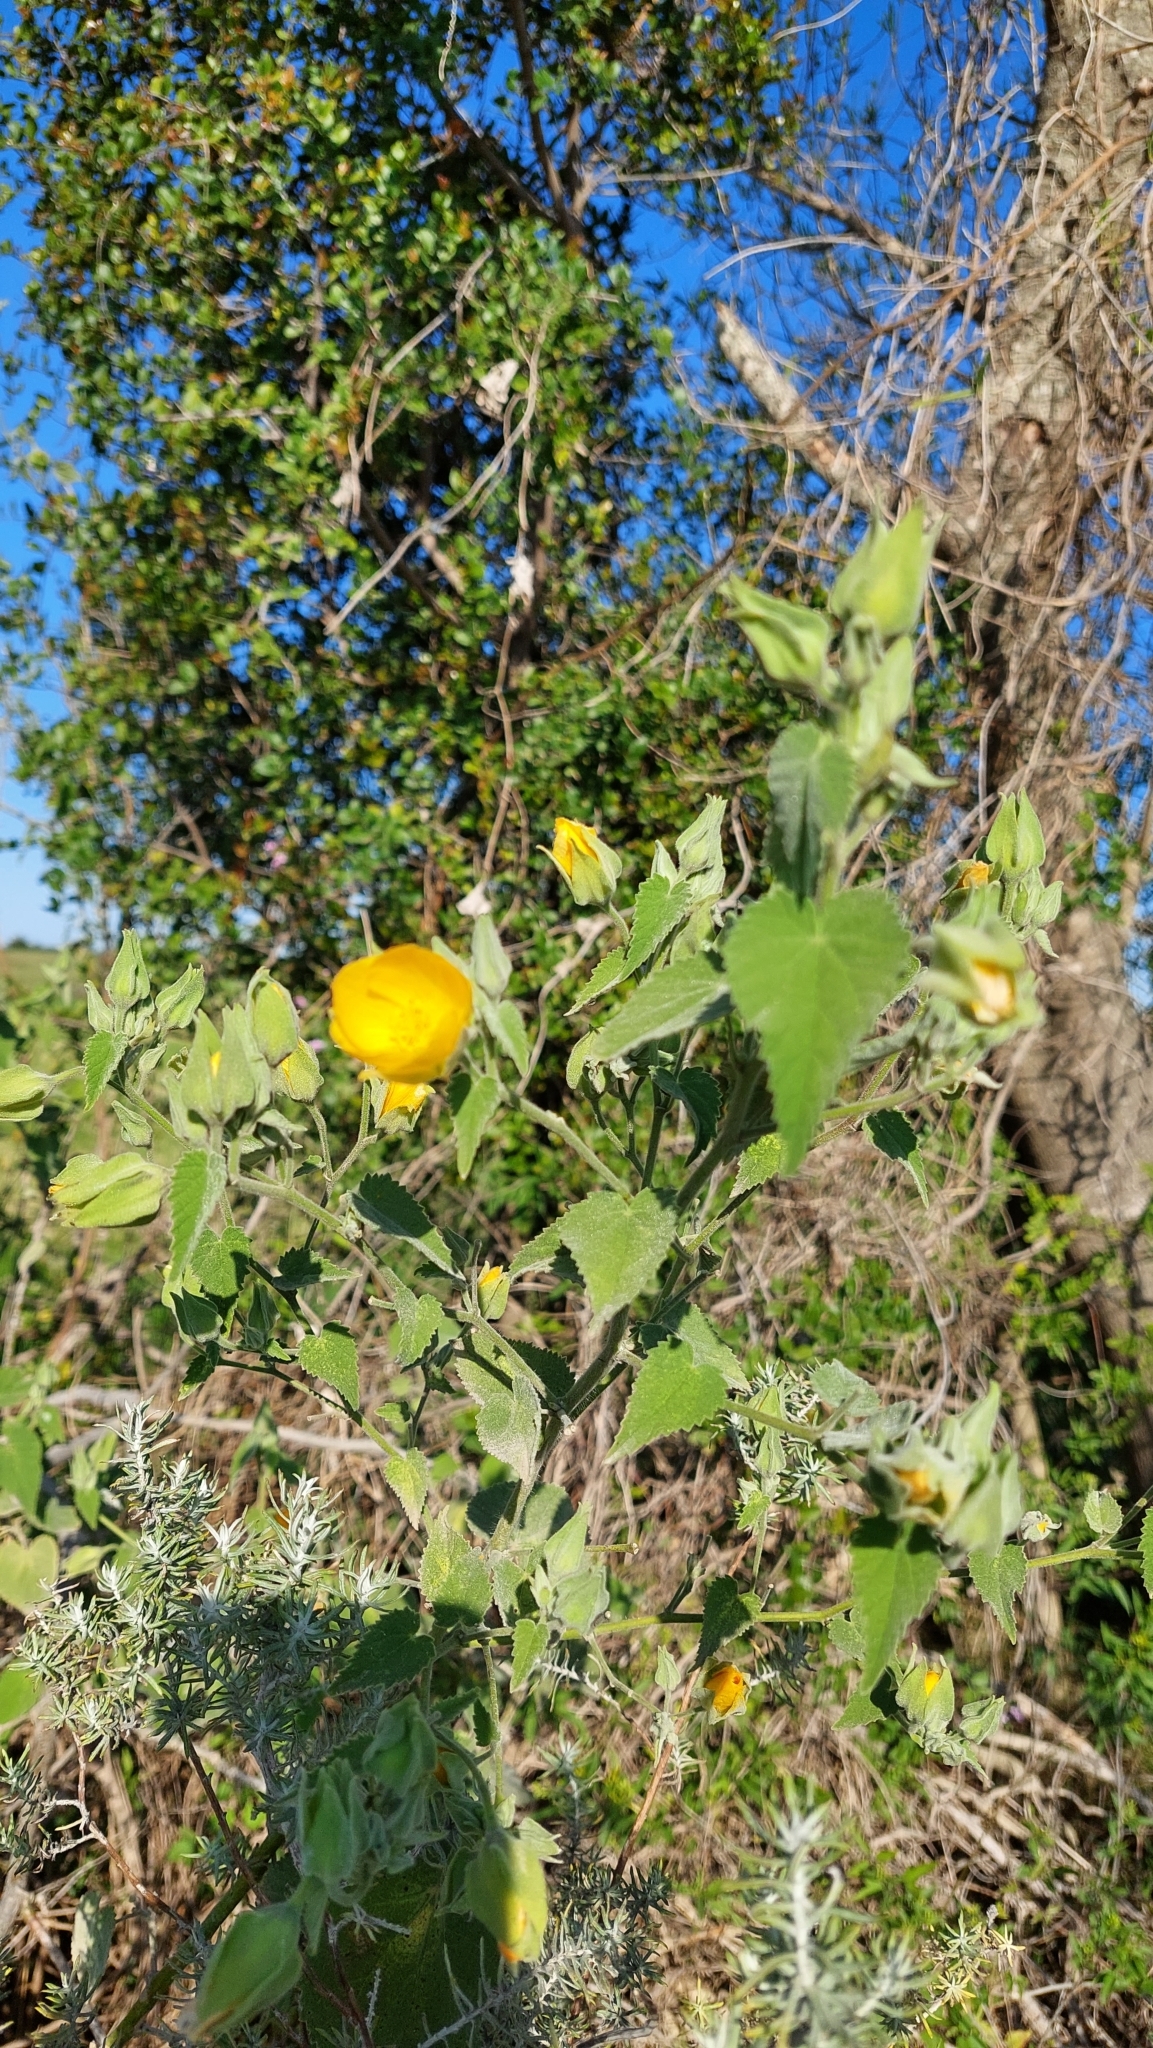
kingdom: Plantae
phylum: Tracheophyta
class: Magnoliopsida
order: Malvales
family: Malvaceae
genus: Abutilon
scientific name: Abutilon grandifolium
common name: Hairy abutilon
